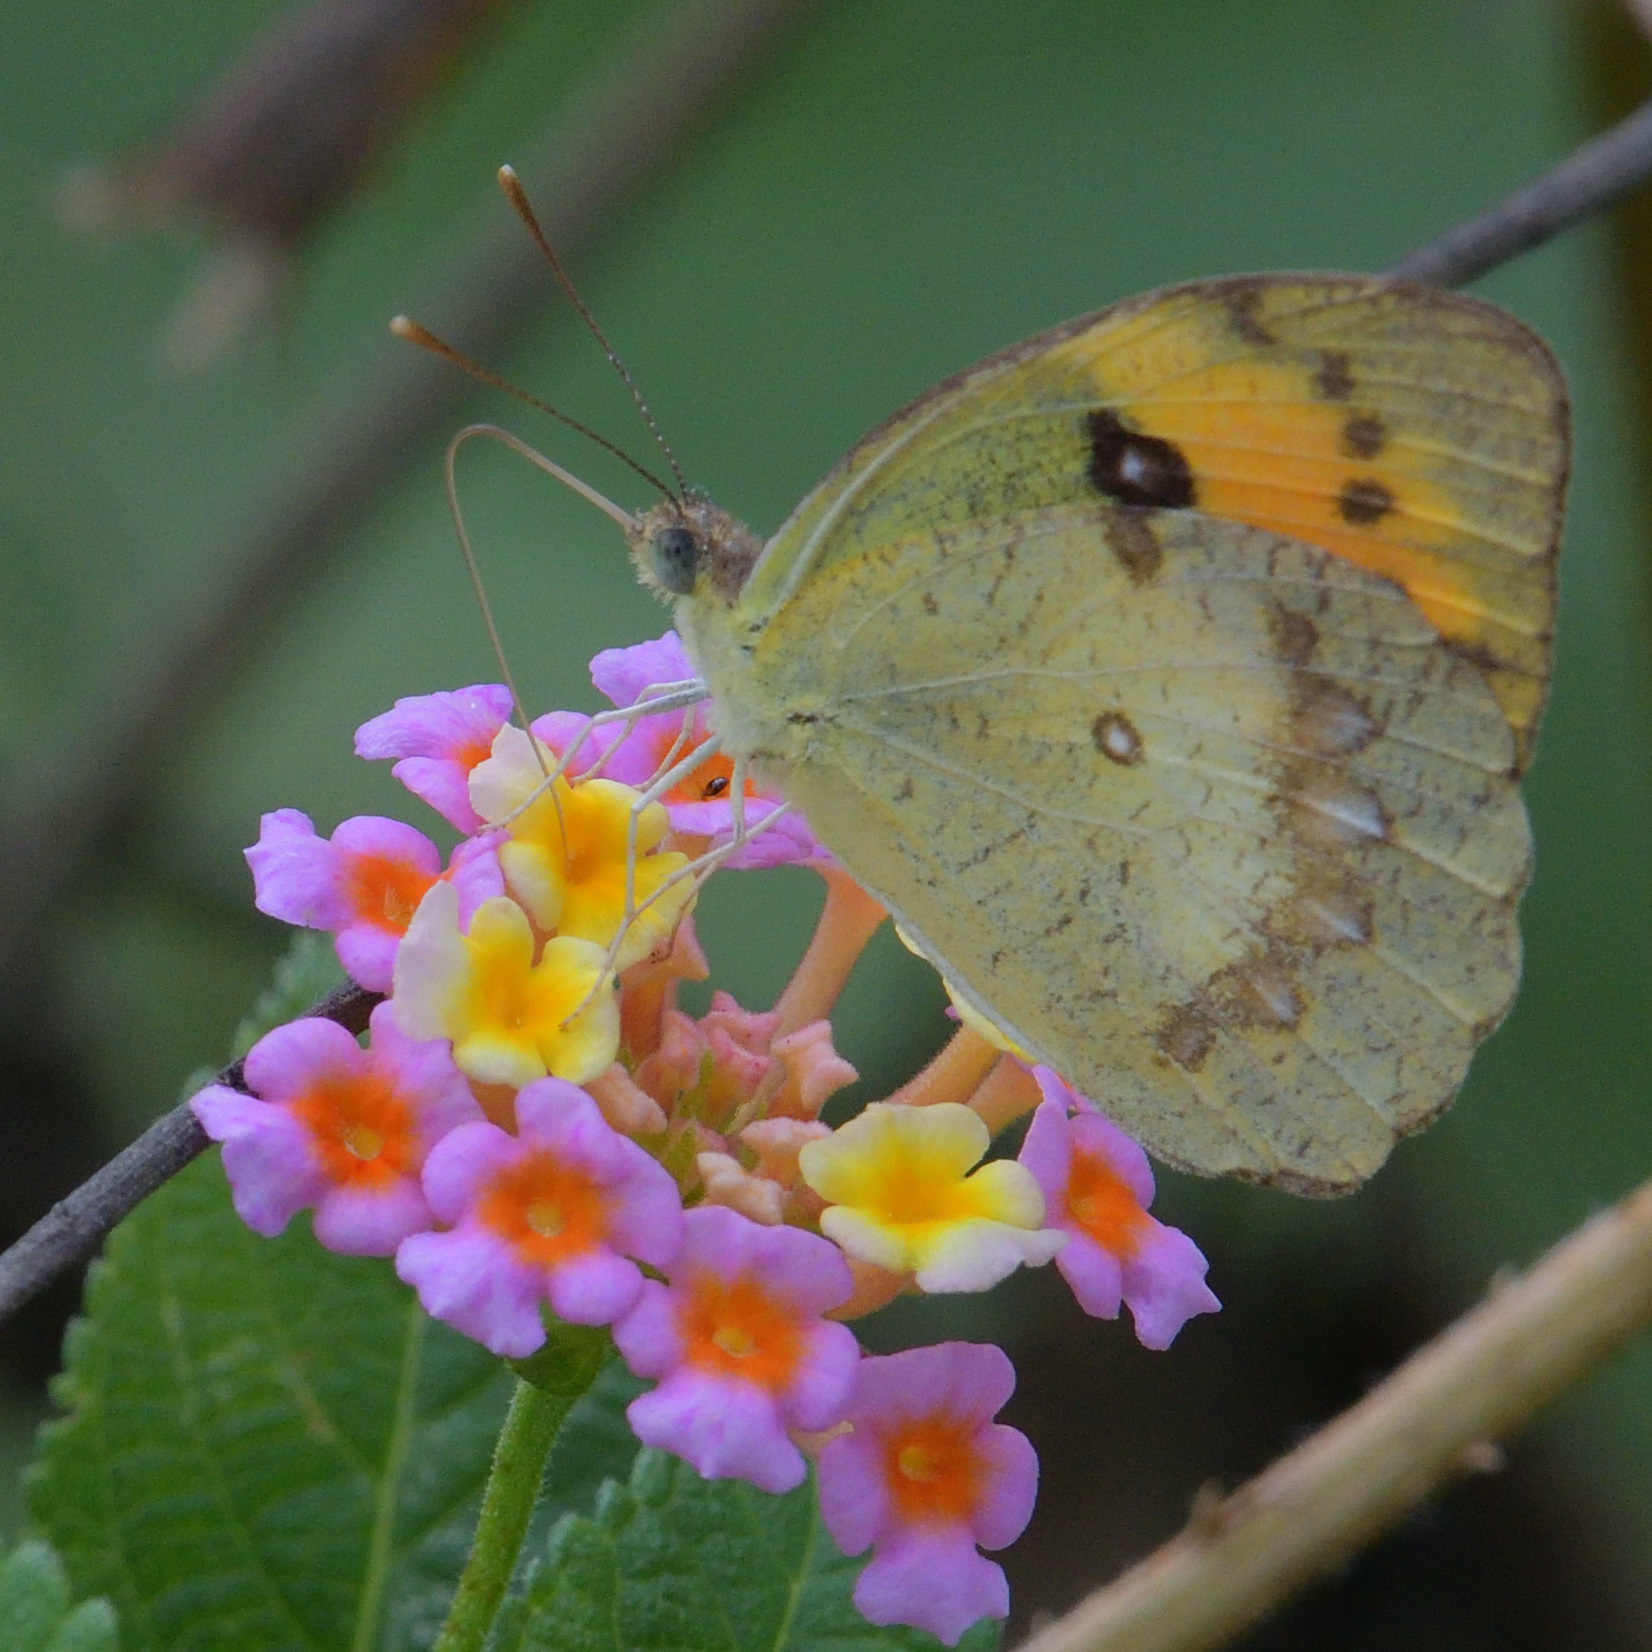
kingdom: Animalia
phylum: Arthropoda
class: Insecta
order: Lepidoptera
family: Pieridae
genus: Ixias
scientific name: Ixias marianne
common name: White orange tip
